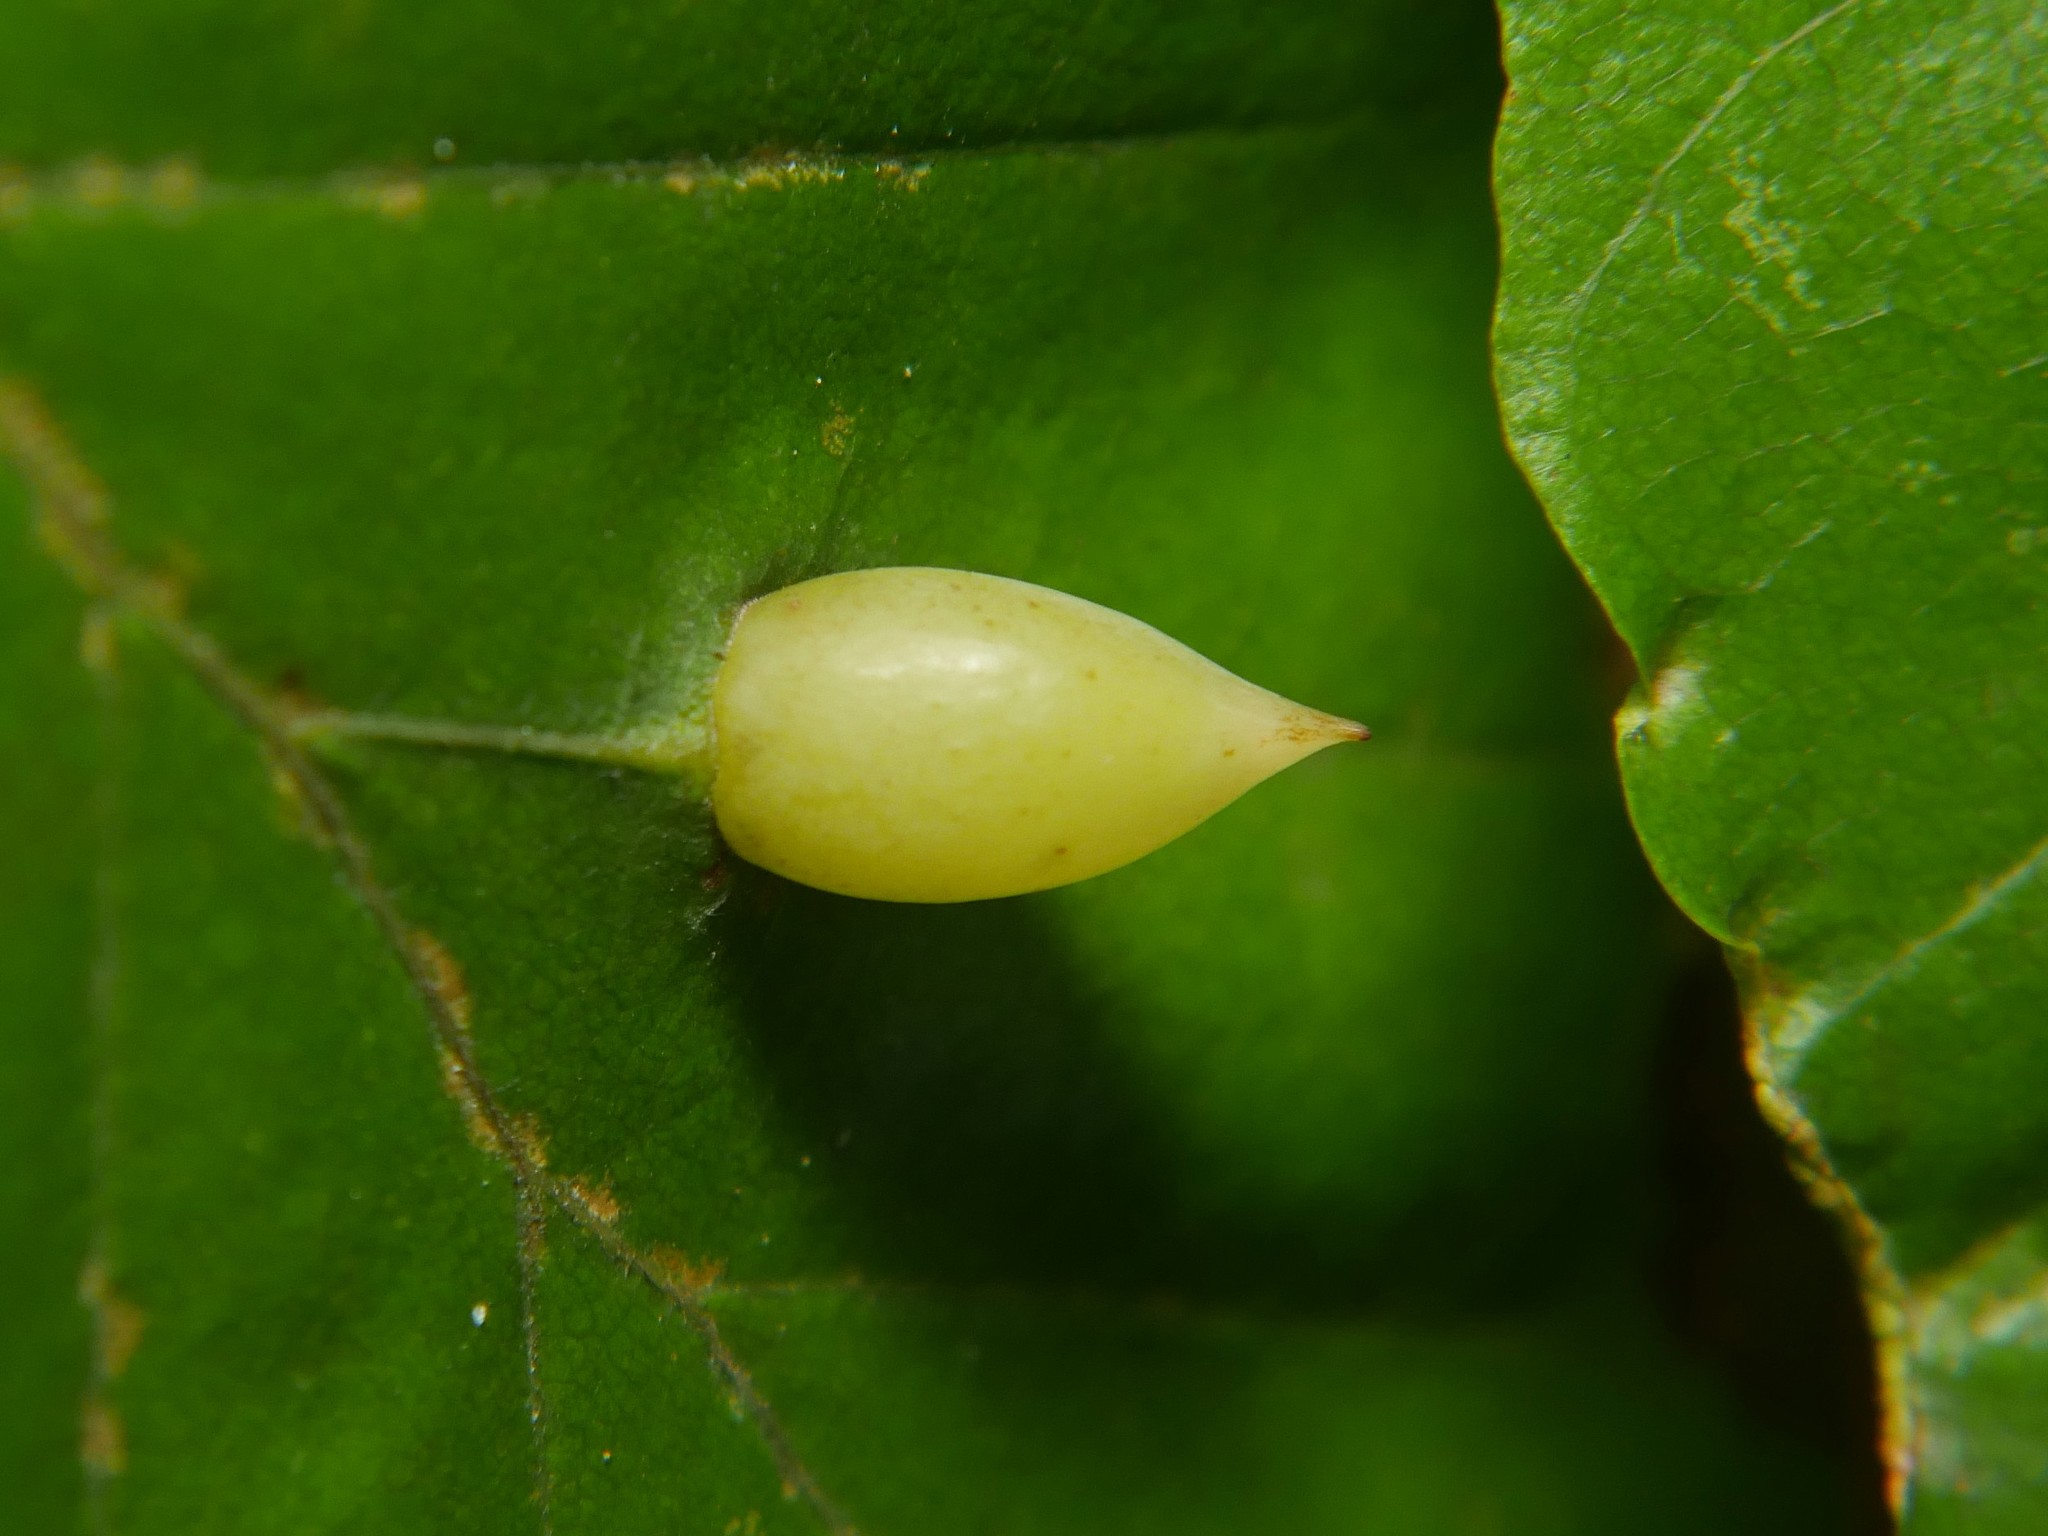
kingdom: Animalia
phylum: Arthropoda
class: Insecta
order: Diptera
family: Cecidomyiidae
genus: Mikiola
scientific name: Mikiola fagi
